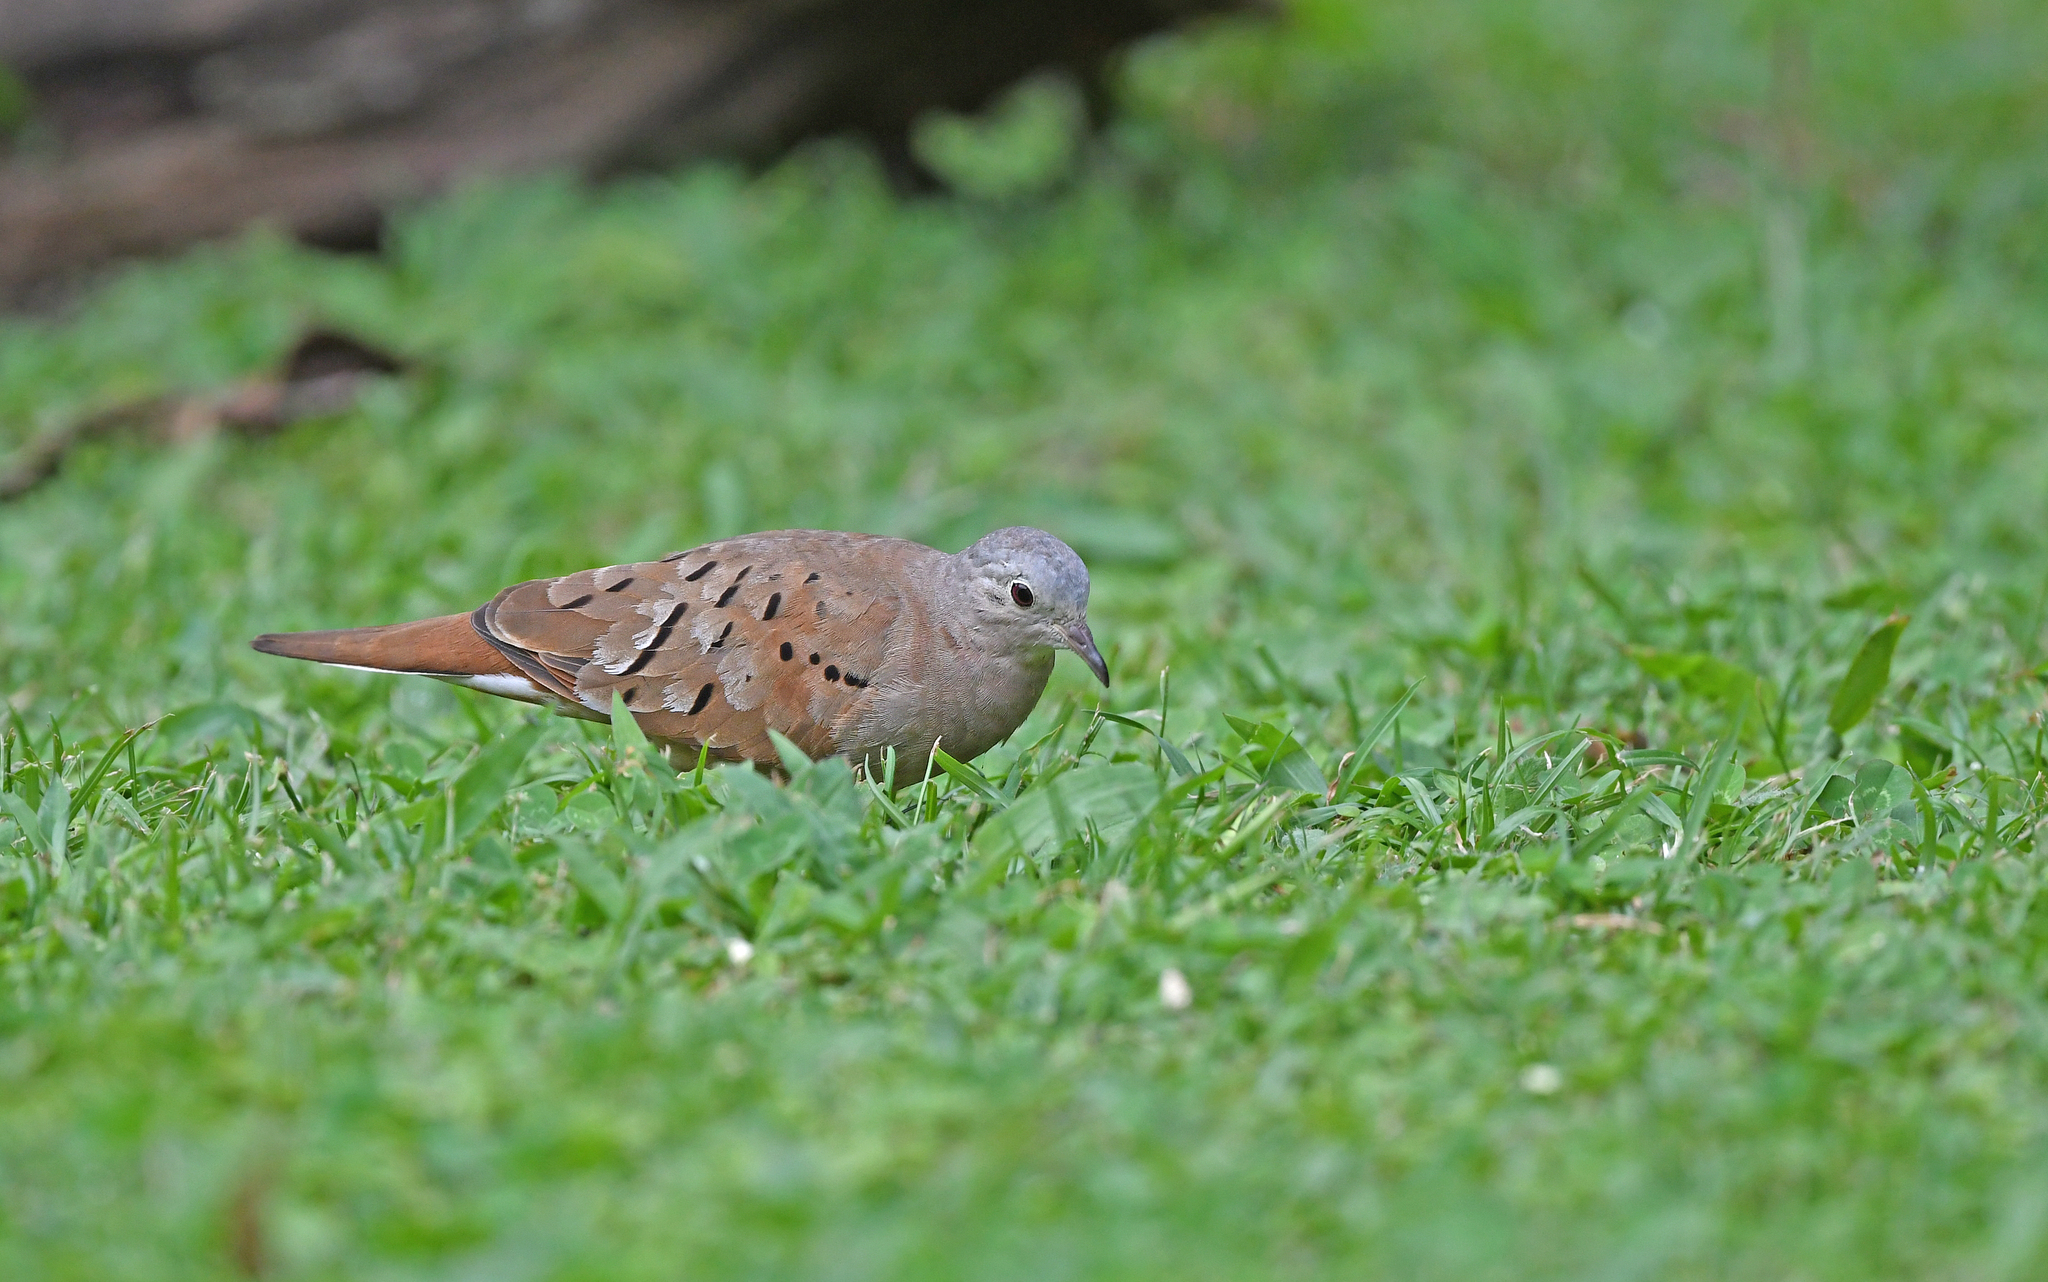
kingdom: Animalia
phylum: Chordata
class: Aves
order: Columbiformes
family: Columbidae
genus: Columbina
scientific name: Columbina talpacoti
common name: Ruddy ground dove
